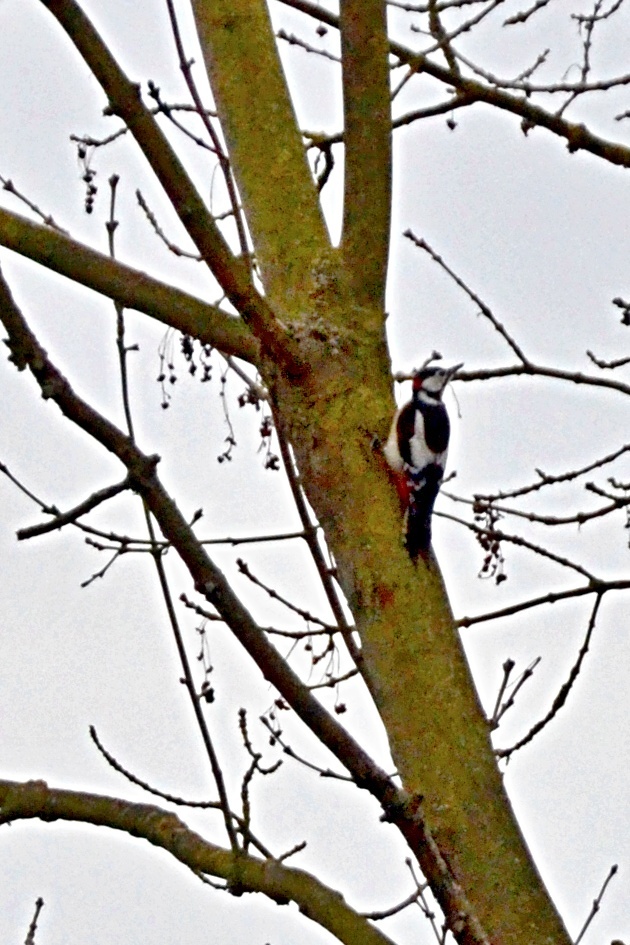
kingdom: Animalia
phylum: Chordata
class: Aves
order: Piciformes
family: Picidae
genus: Dendrocopos
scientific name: Dendrocopos major
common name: Great spotted woodpecker
